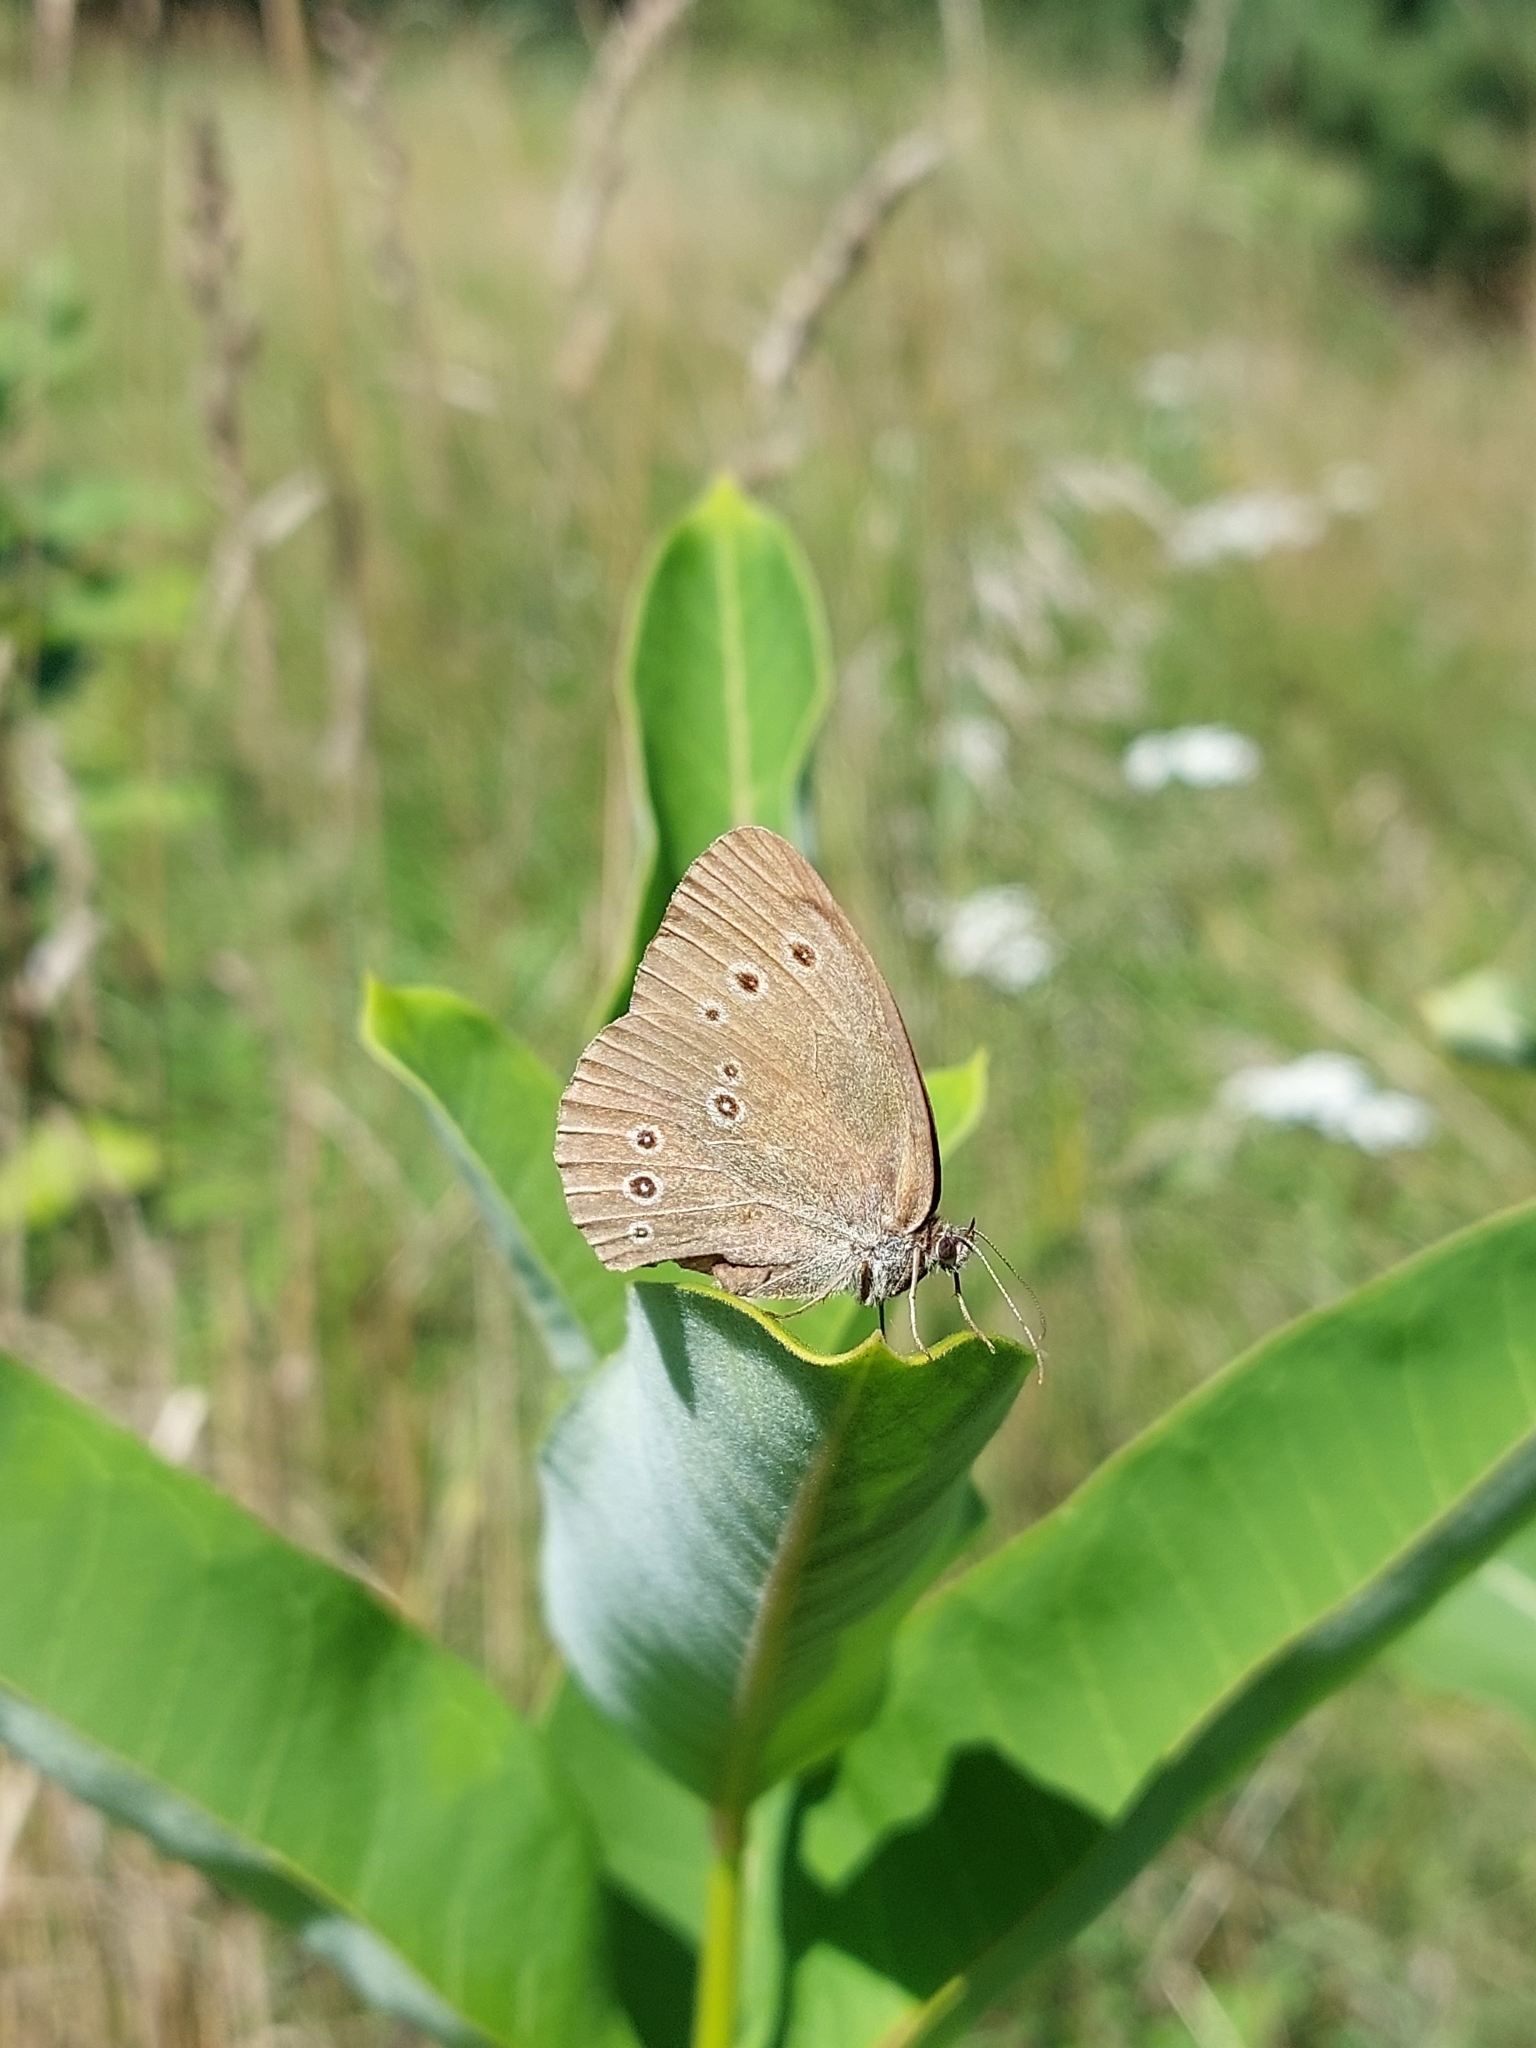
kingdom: Animalia
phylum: Arthropoda
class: Insecta
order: Lepidoptera
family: Nymphalidae
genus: Aphantopus
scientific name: Aphantopus hyperantus
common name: Ringlet
